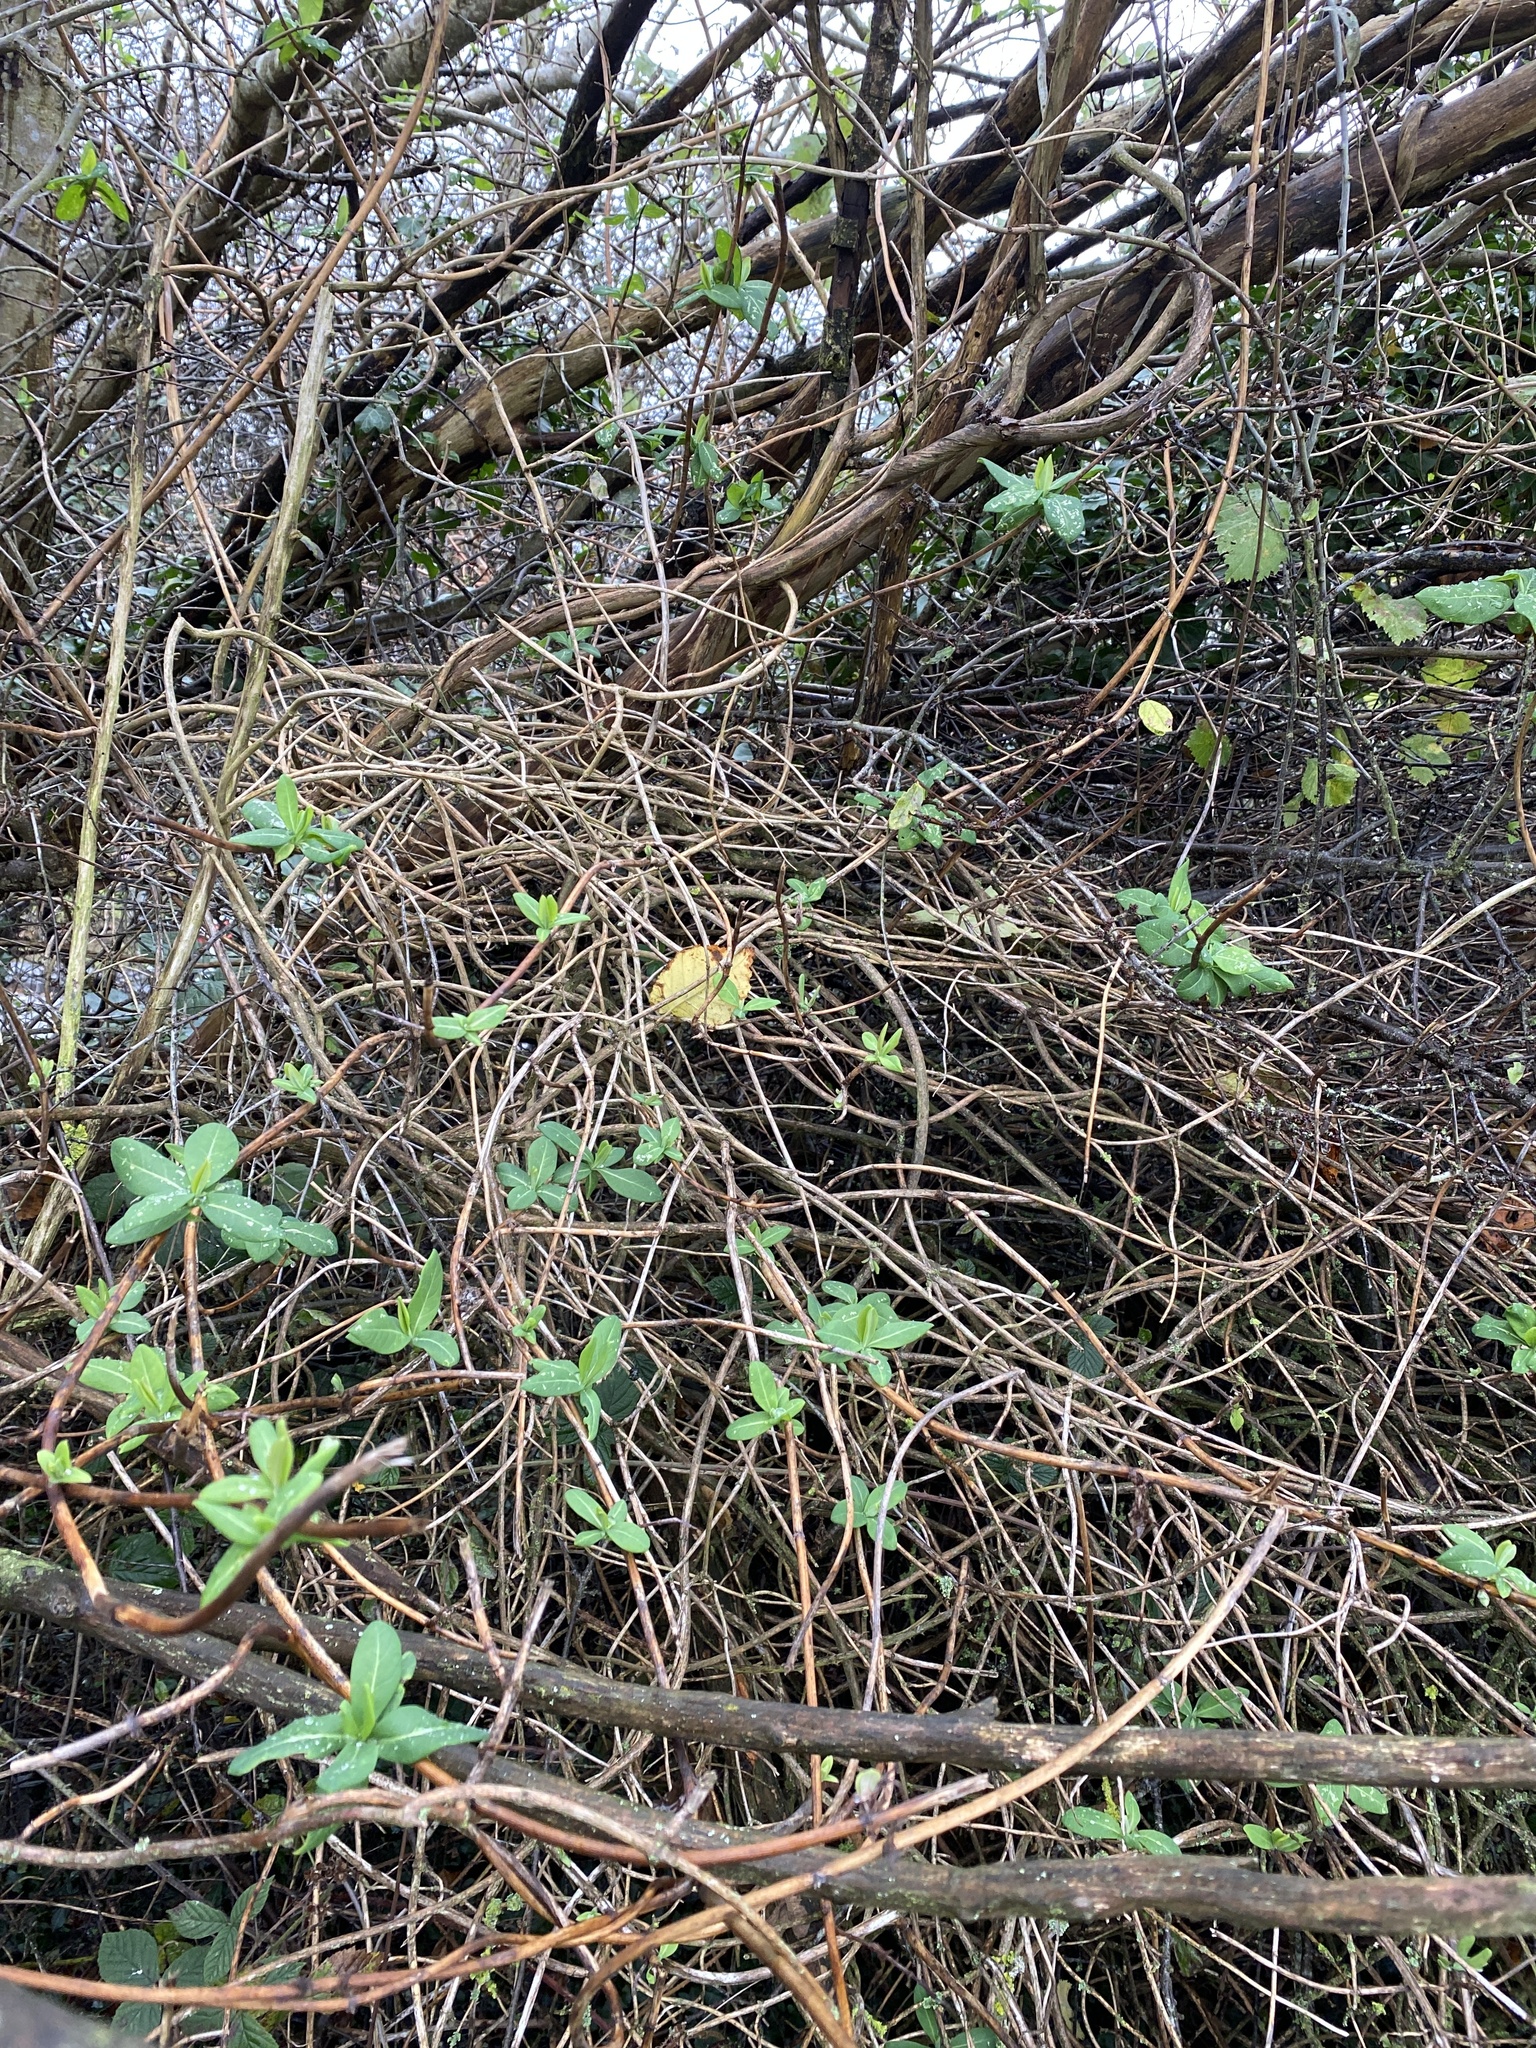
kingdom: Plantae
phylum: Tracheophyta
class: Magnoliopsida
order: Dipsacales
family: Caprifoliaceae
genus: Lonicera
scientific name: Lonicera periclymenum
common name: European honeysuckle
